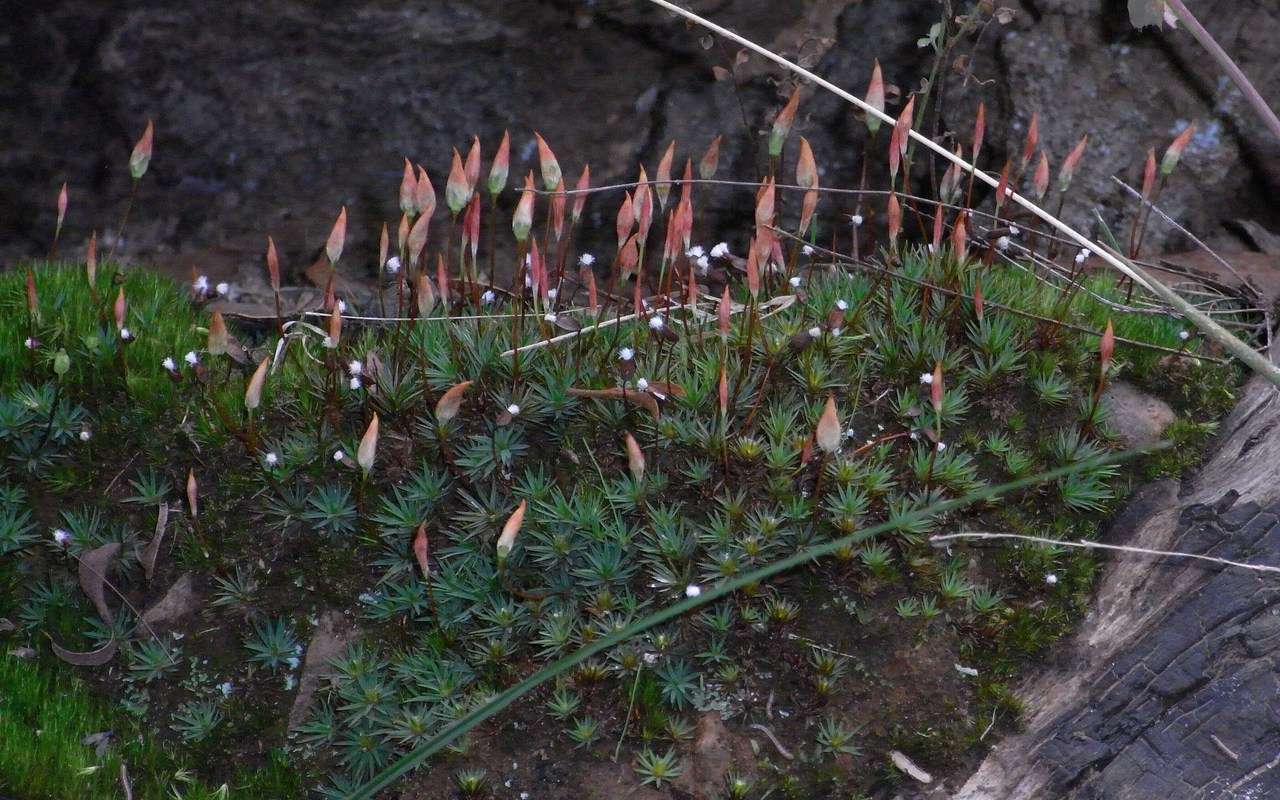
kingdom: Plantae
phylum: Bryophyta
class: Polytrichopsida
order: Polytrichales
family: Polytrichaceae
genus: Dawsonia
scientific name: Dawsonia longiseta
